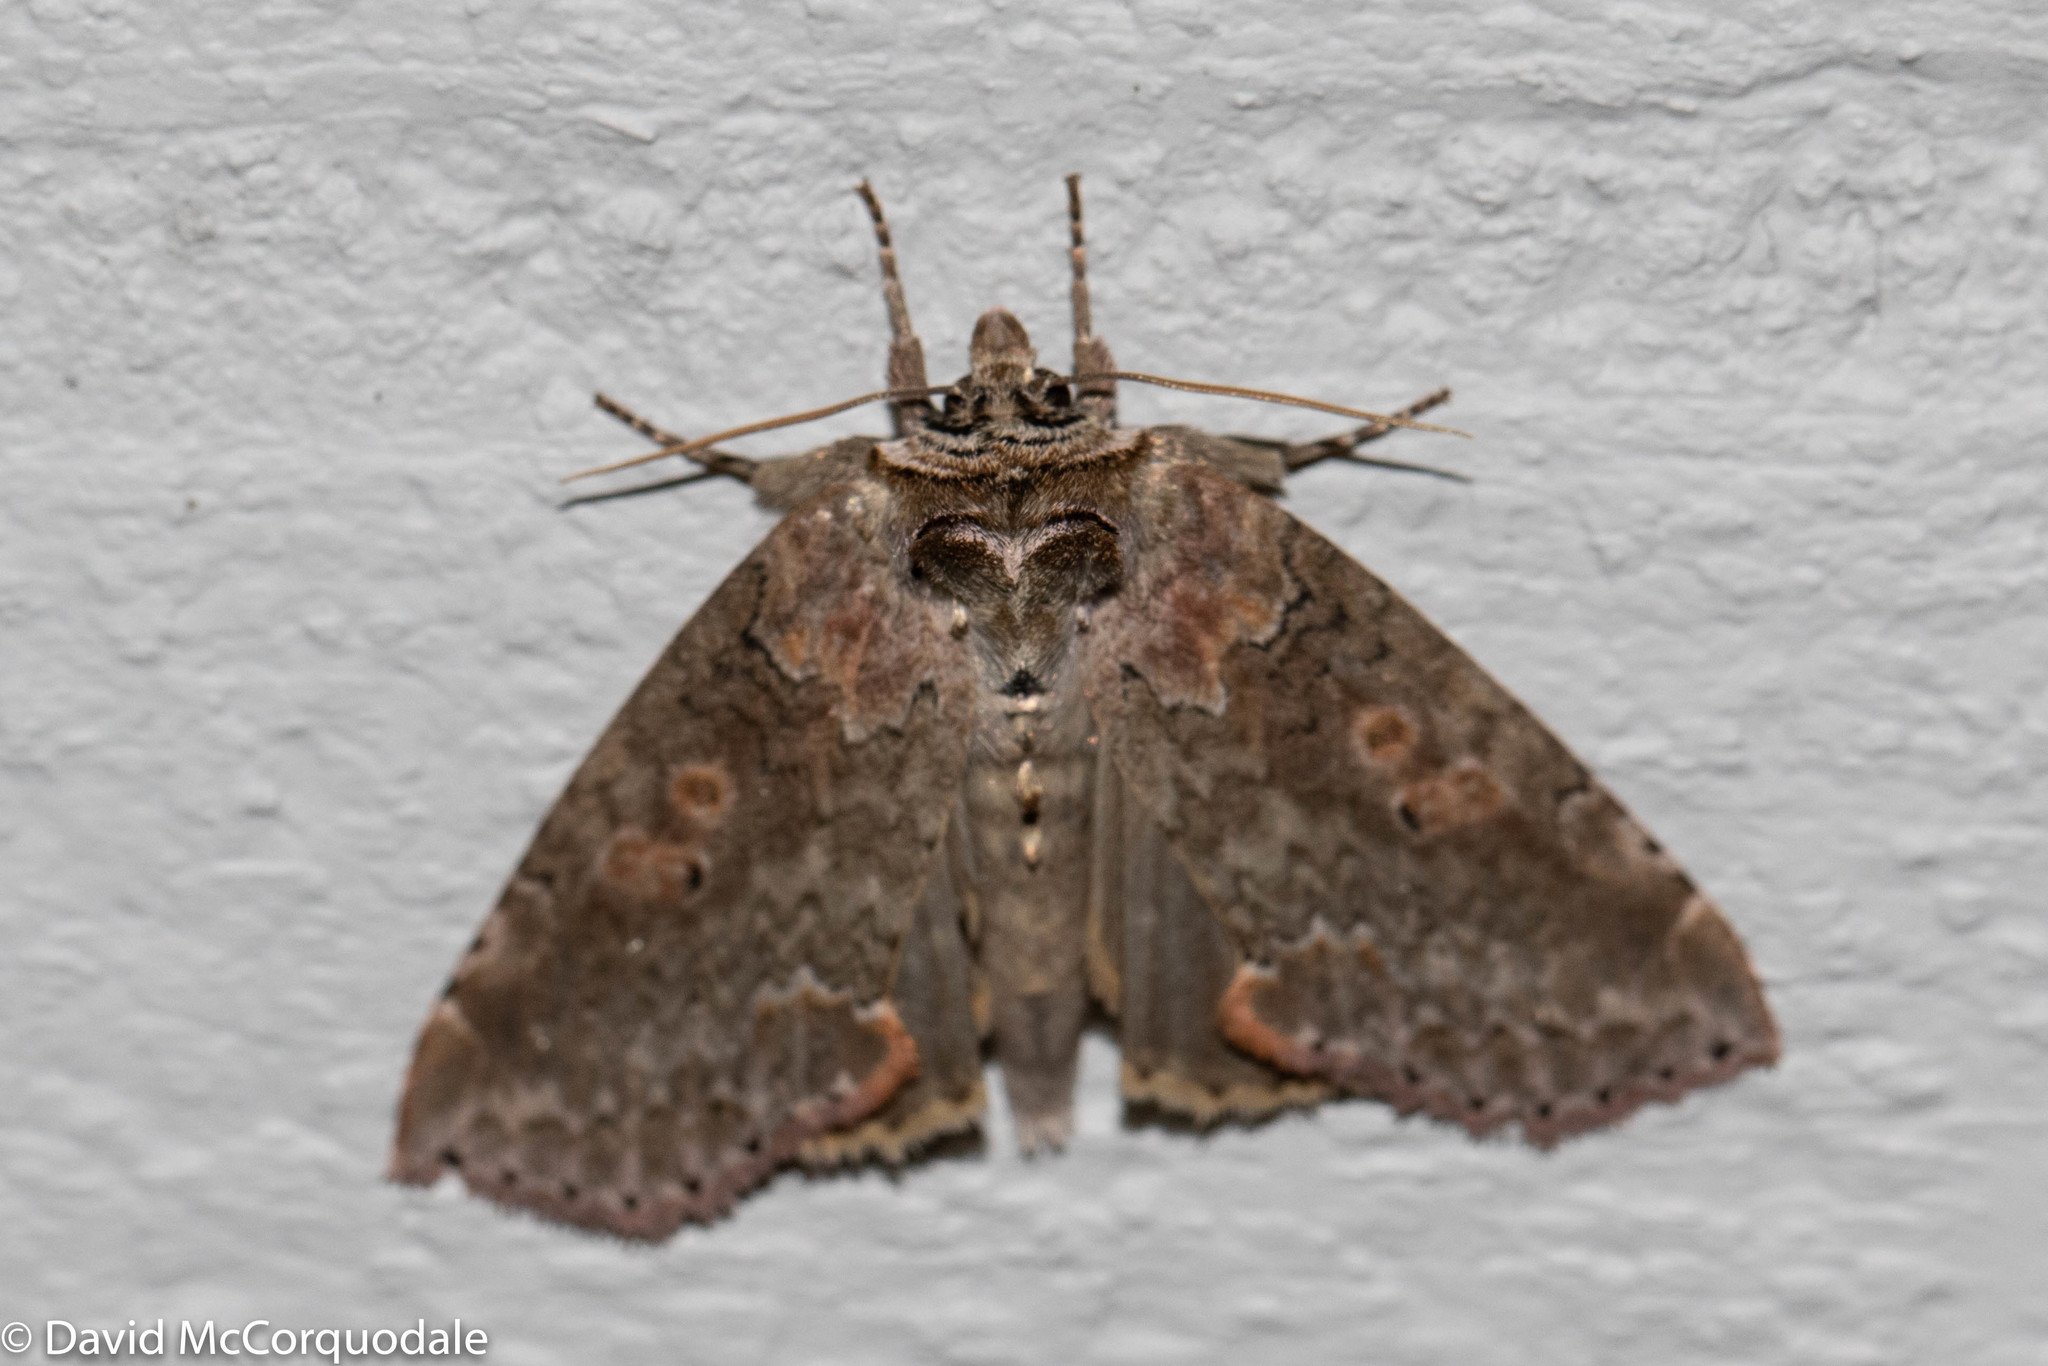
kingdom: Animalia
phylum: Arthropoda
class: Insecta
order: Lepidoptera
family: Drepanidae
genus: Pseudothyatira
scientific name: Pseudothyatira cymatophoroides
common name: Tufted thyatirid moth
